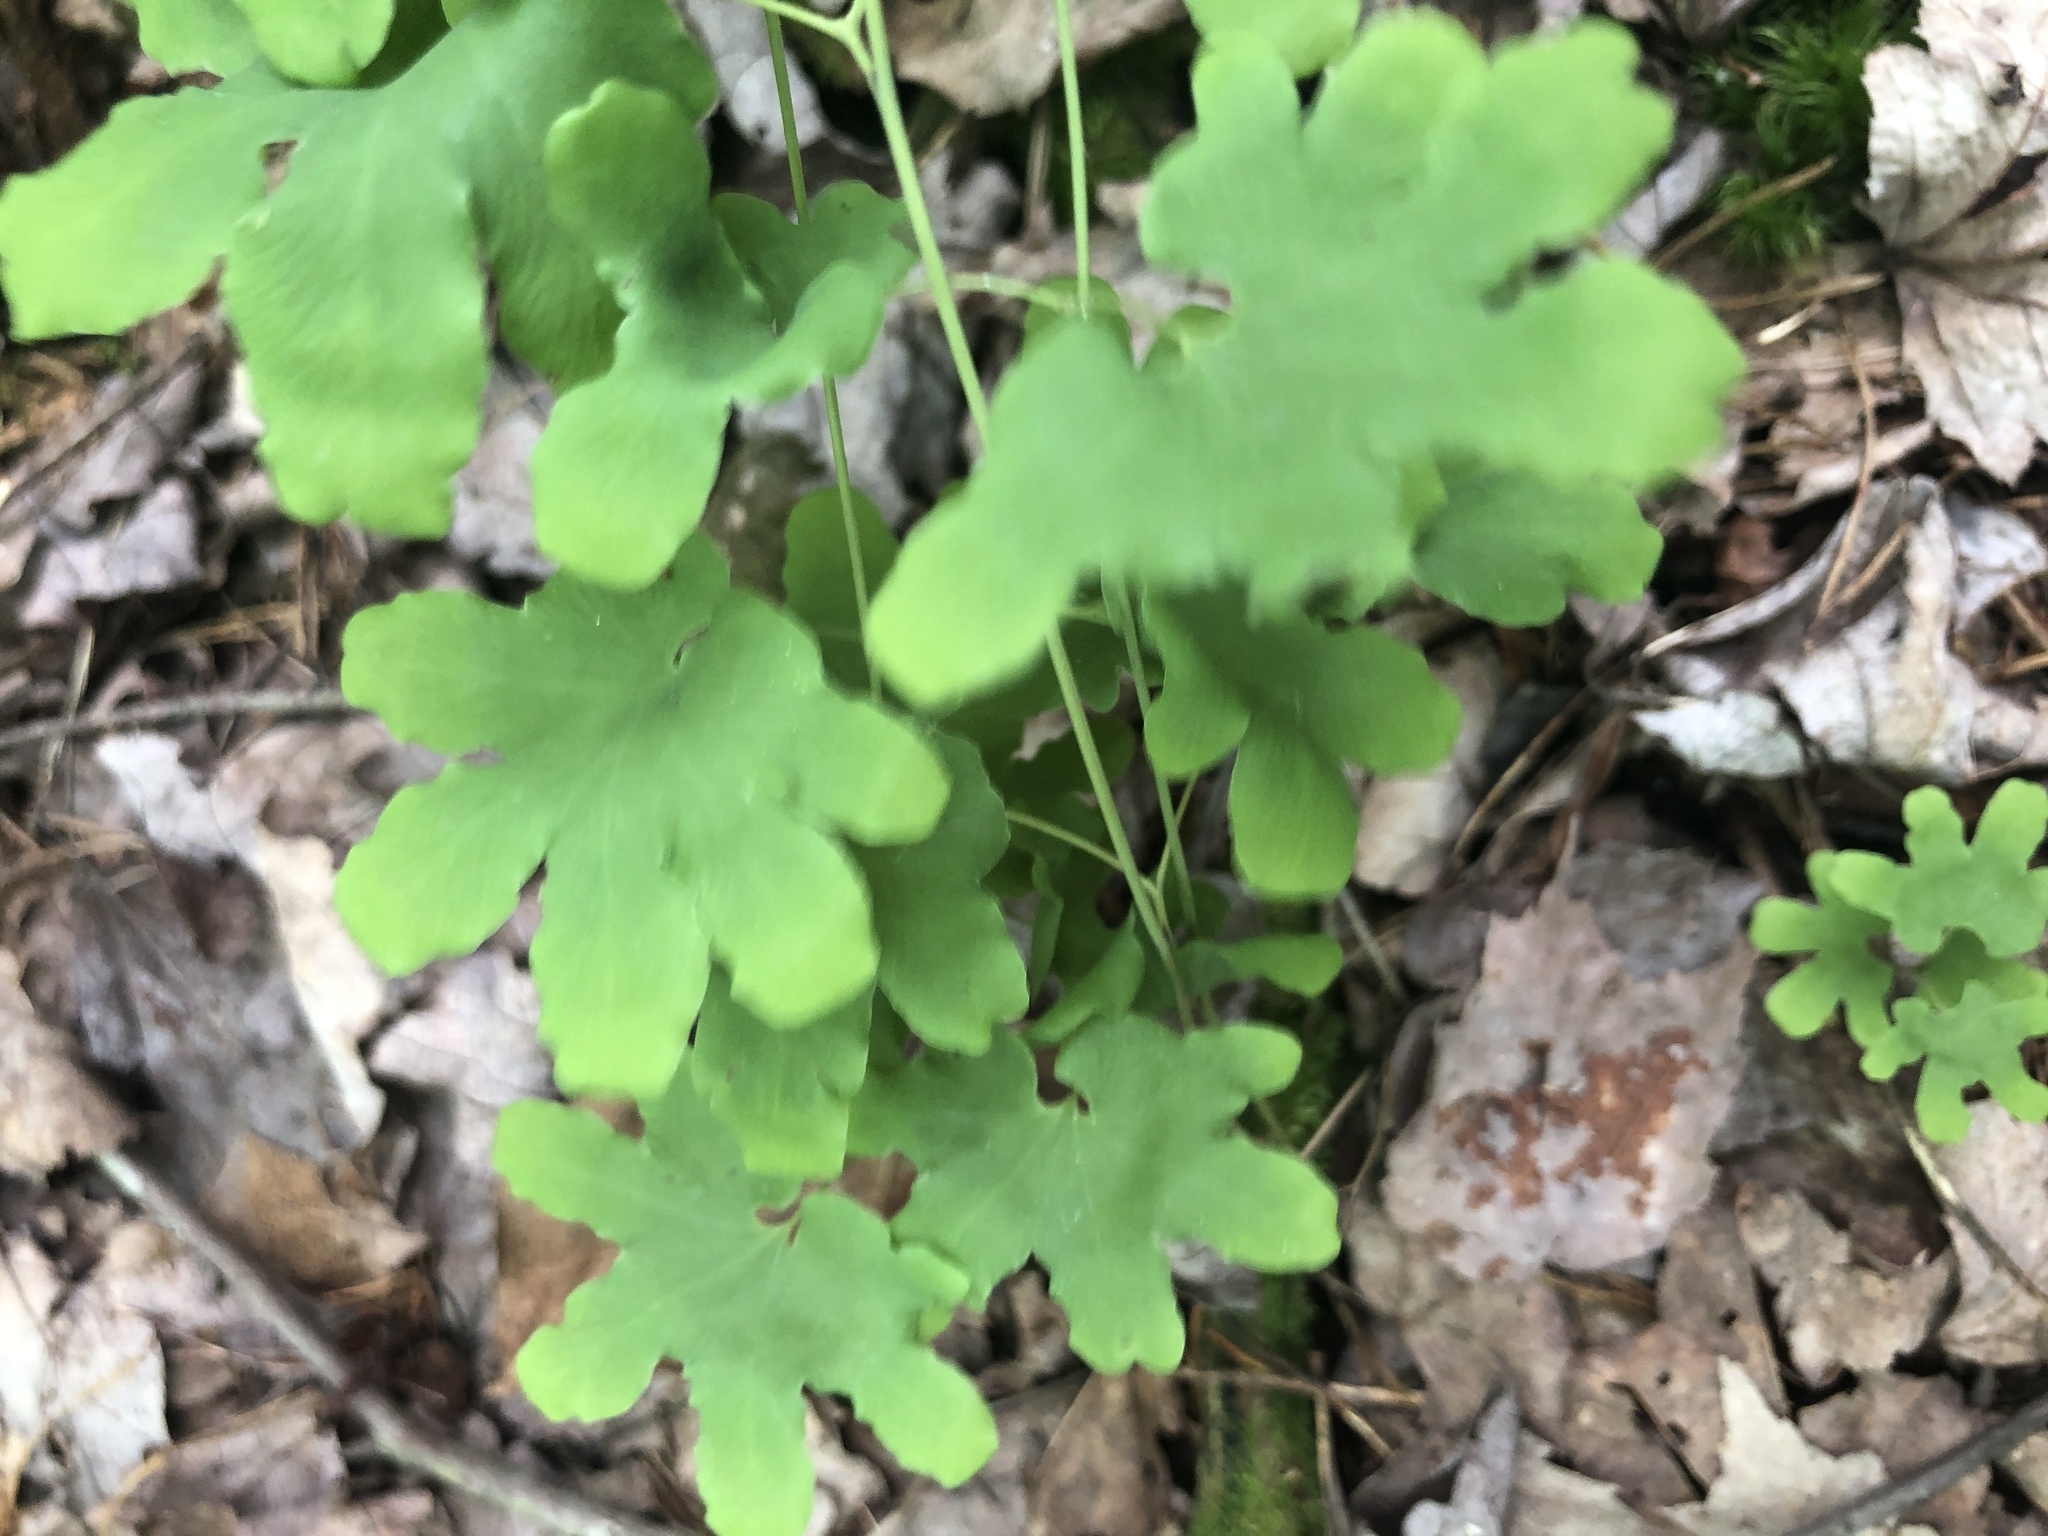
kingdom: Plantae
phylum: Tracheophyta
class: Polypodiopsida
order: Schizaeales
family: Lygodiaceae
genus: Lygodium
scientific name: Lygodium palmatum
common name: American climbing fern
